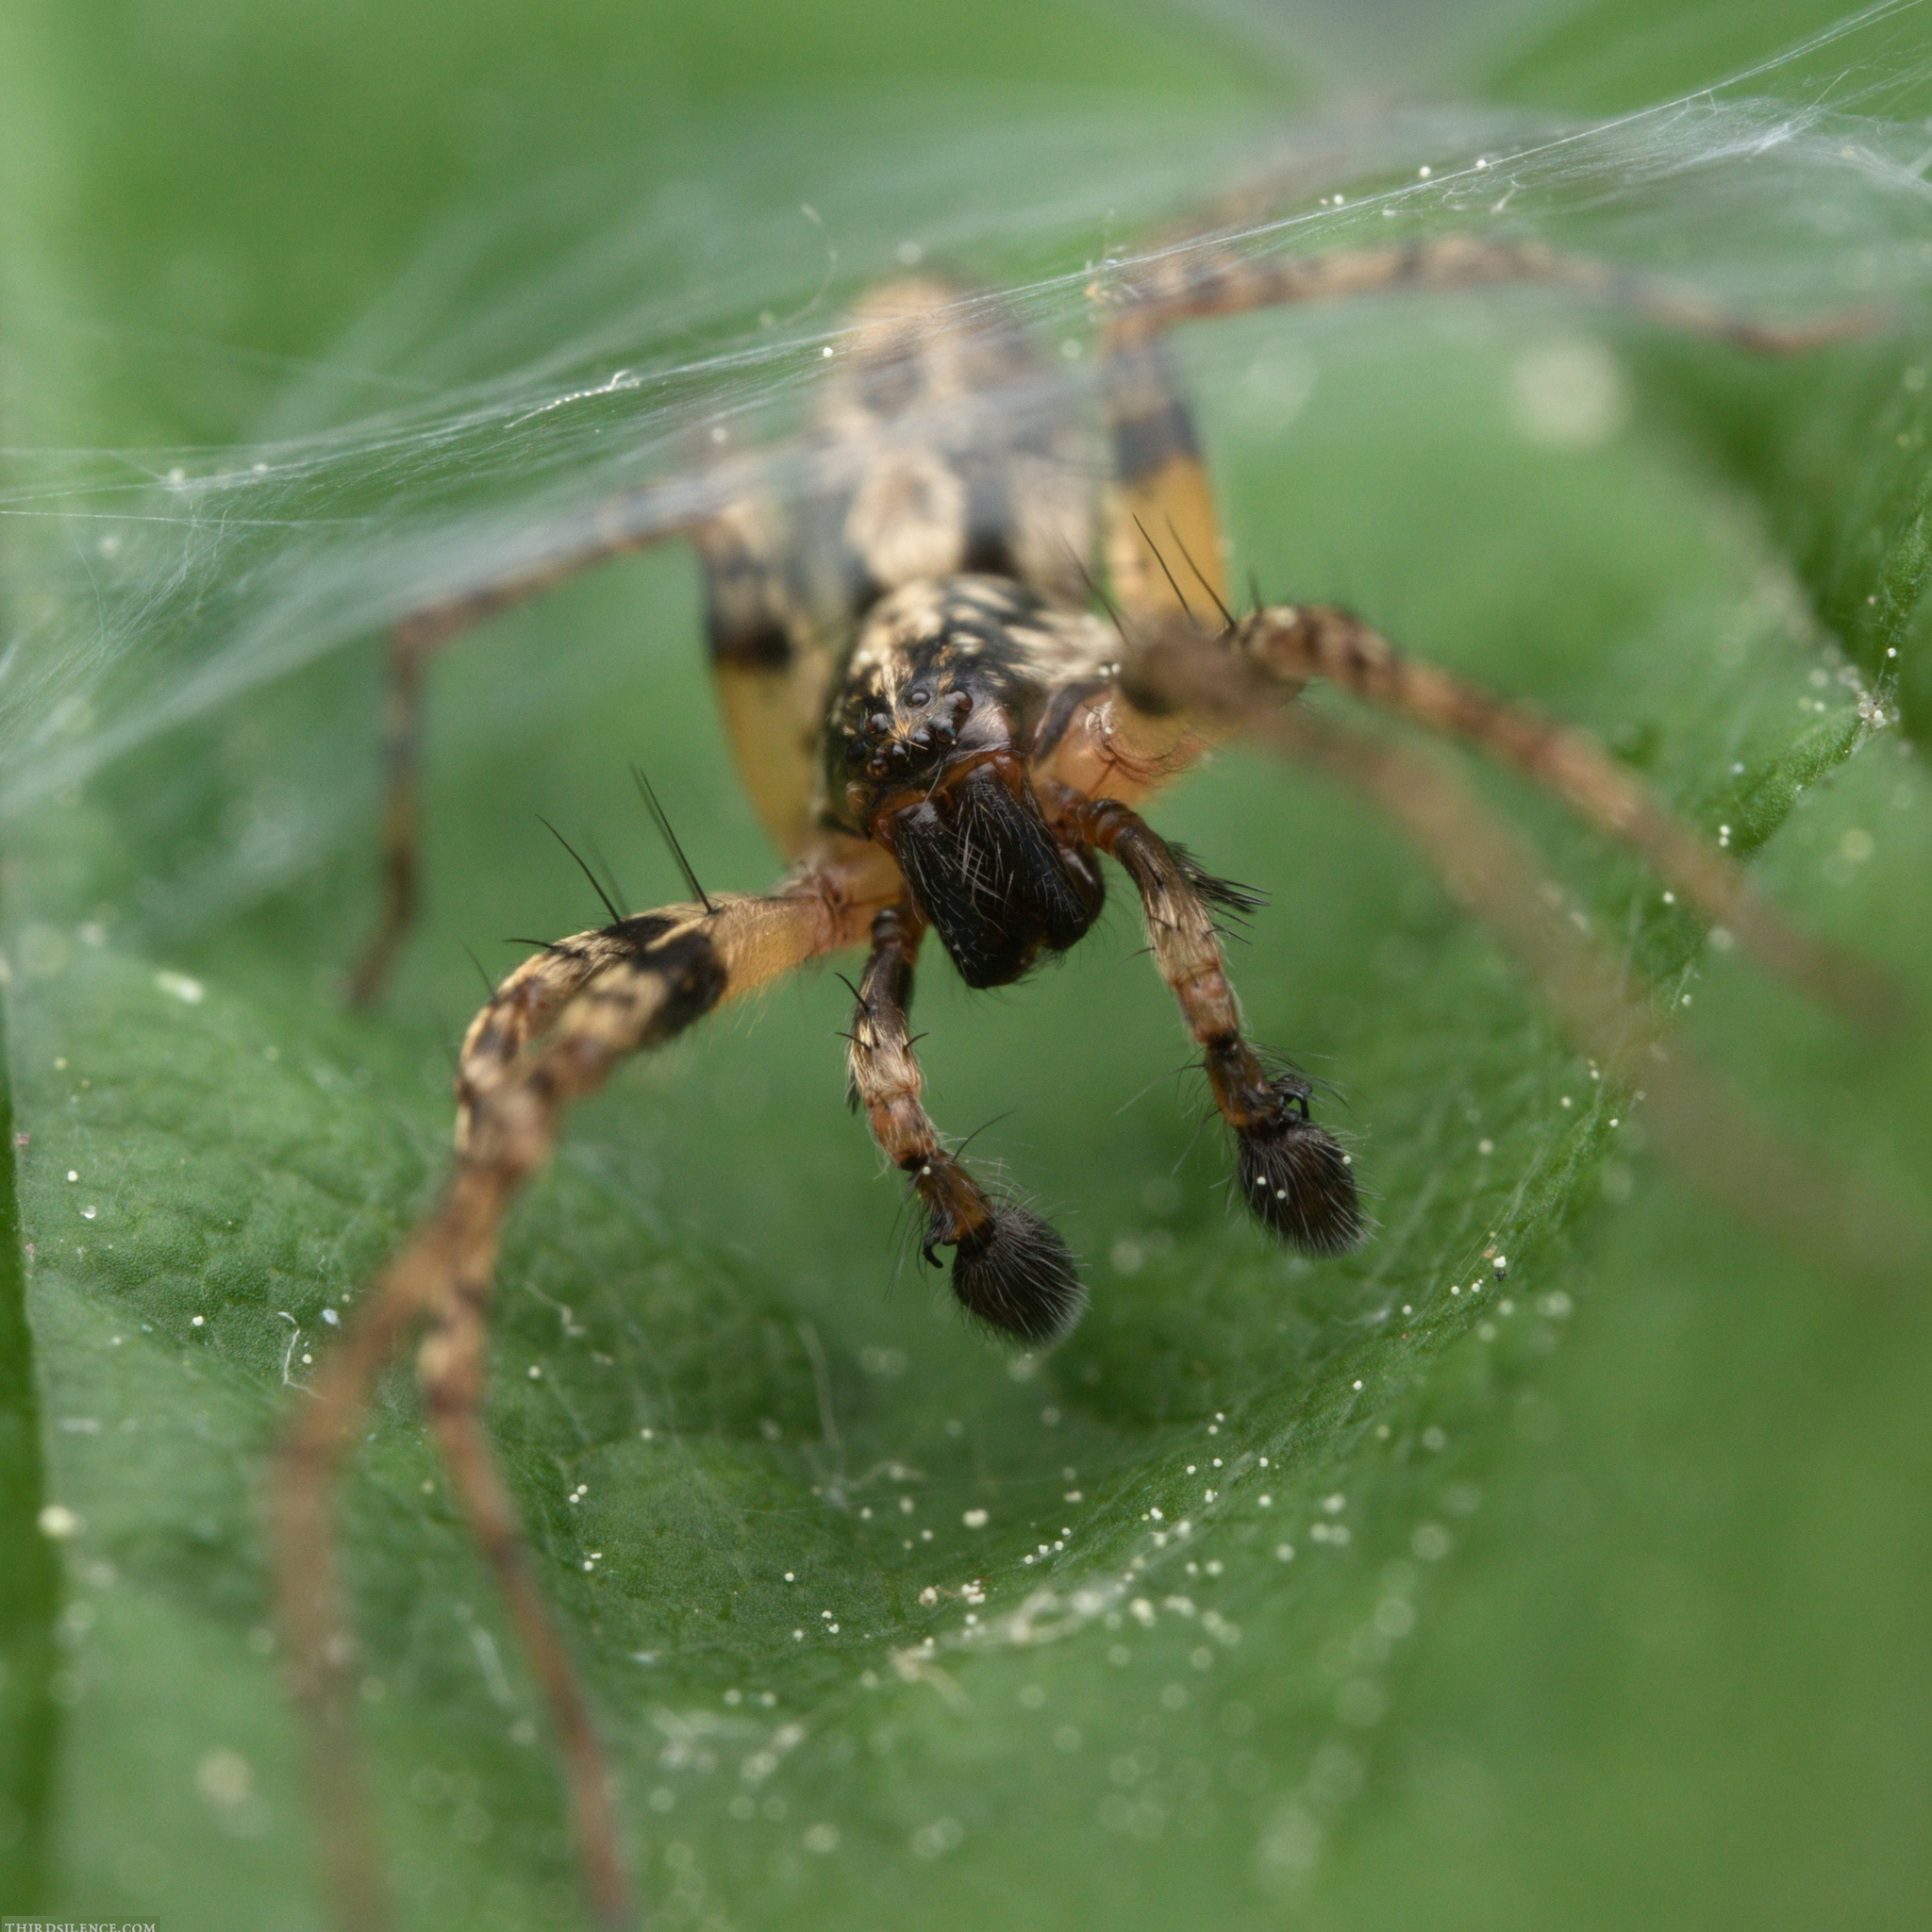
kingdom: Animalia
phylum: Arthropoda
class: Arachnida
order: Araneae
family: Anyphaenidae
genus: Anyphaena
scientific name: Anyphaena accentuata
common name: Buzzing spider
